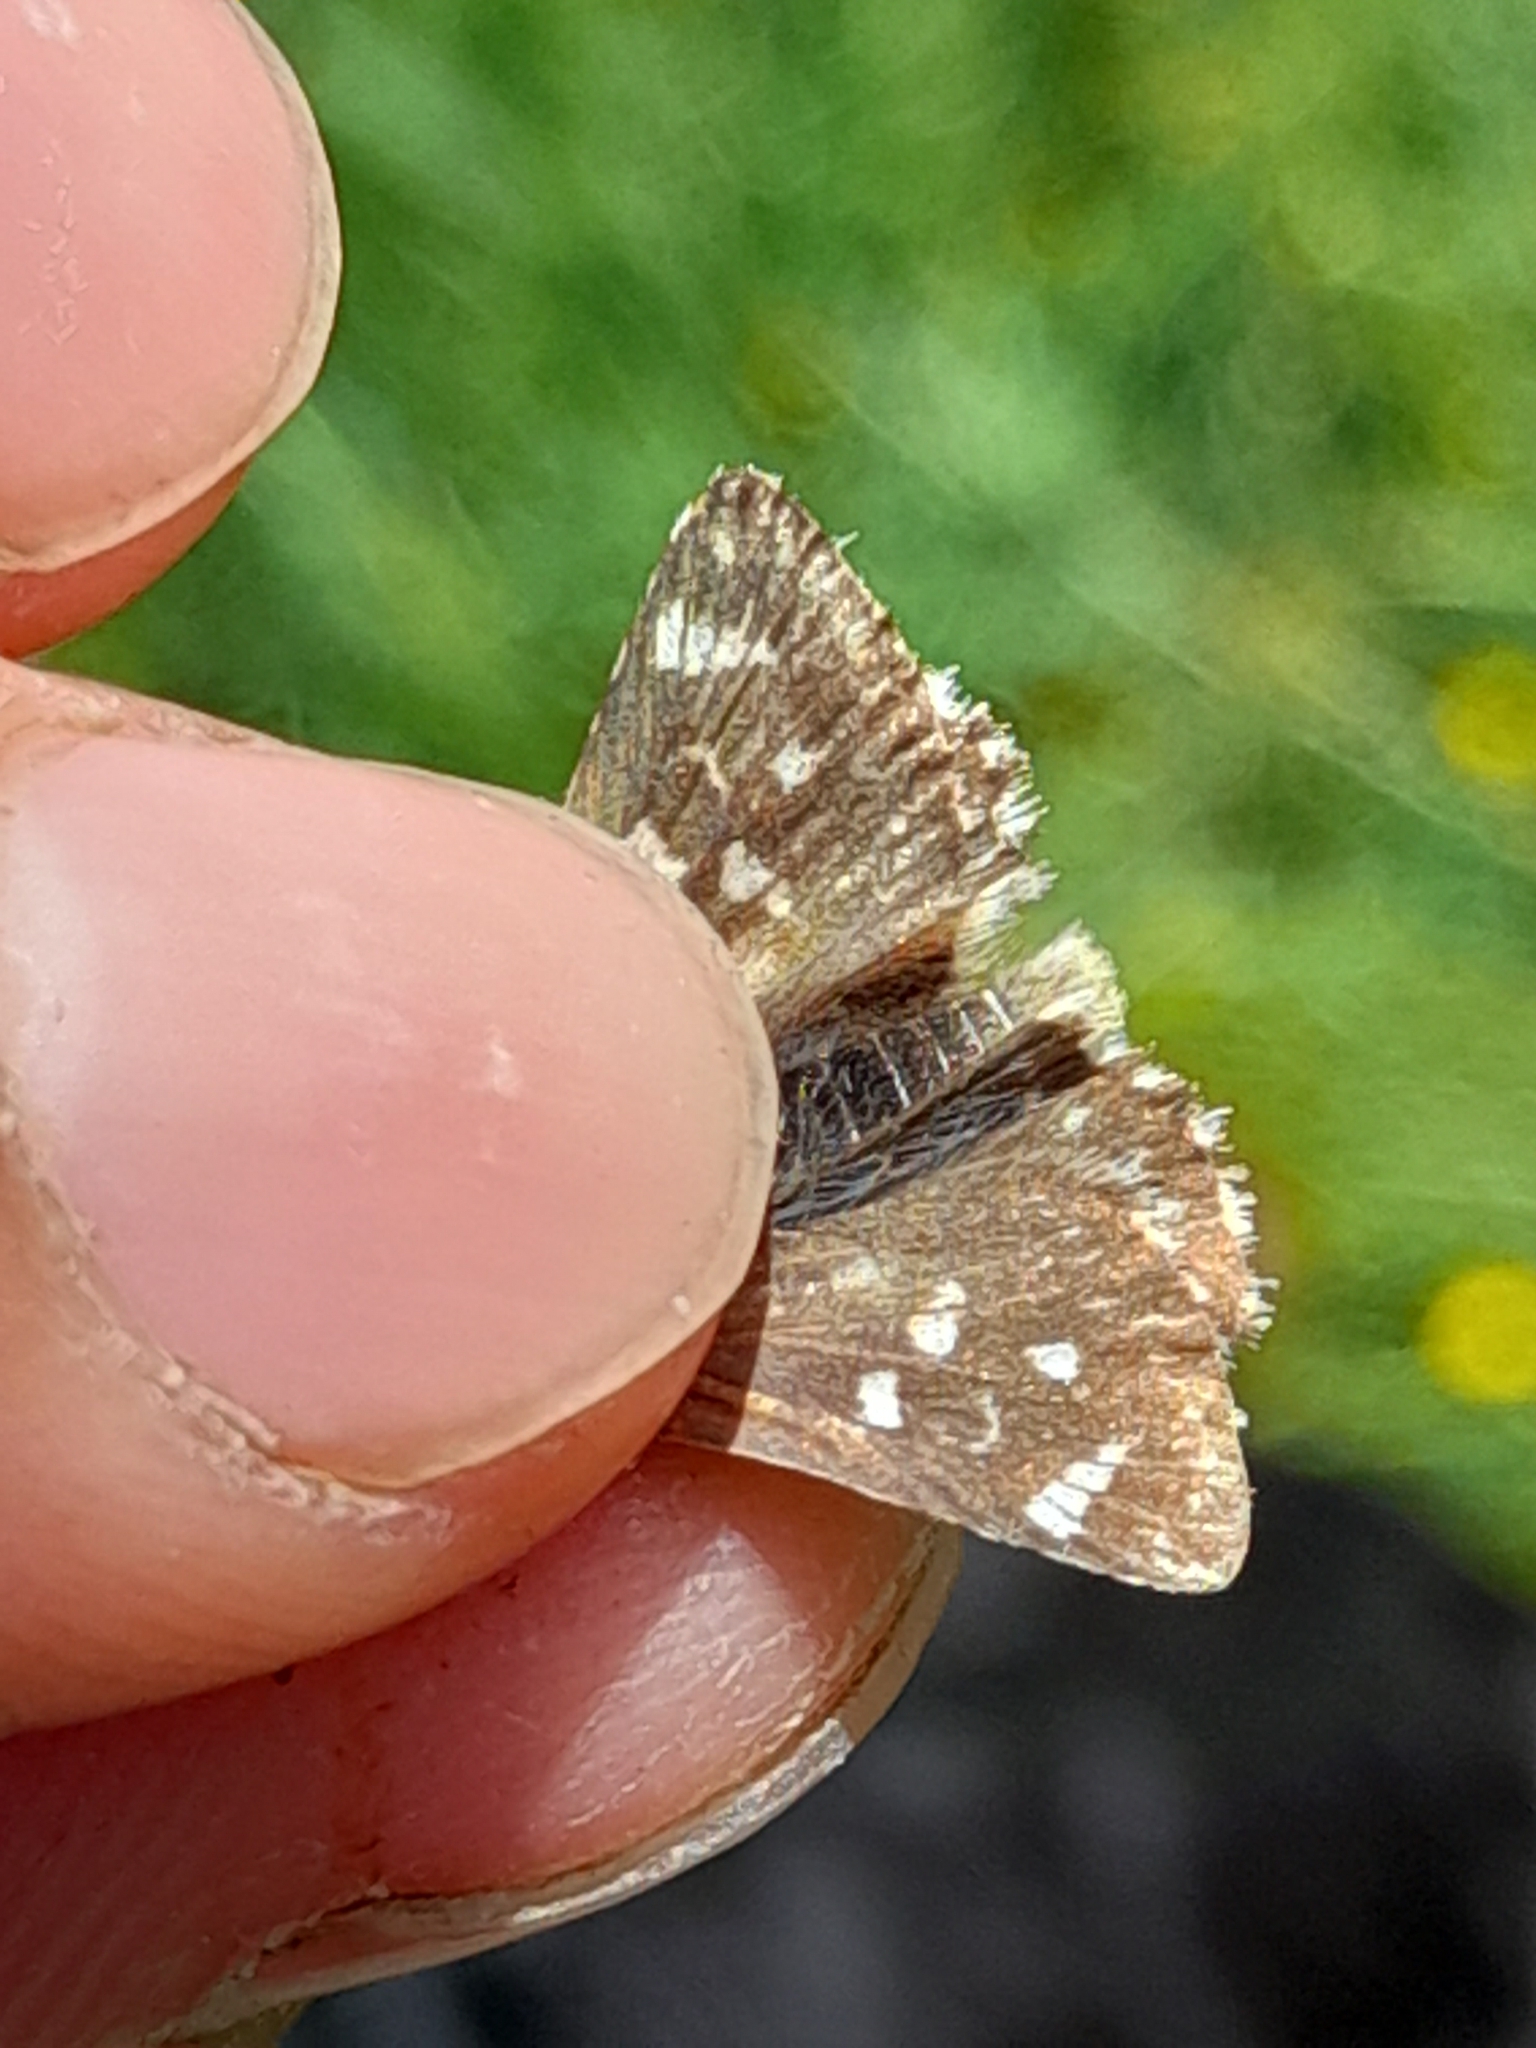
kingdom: Animalia
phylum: Arthropoda
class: Insecta
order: Lepidoptera
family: Hesperiidae
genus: Spialia
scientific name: Spialia sertorius
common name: Red underwing skipper
